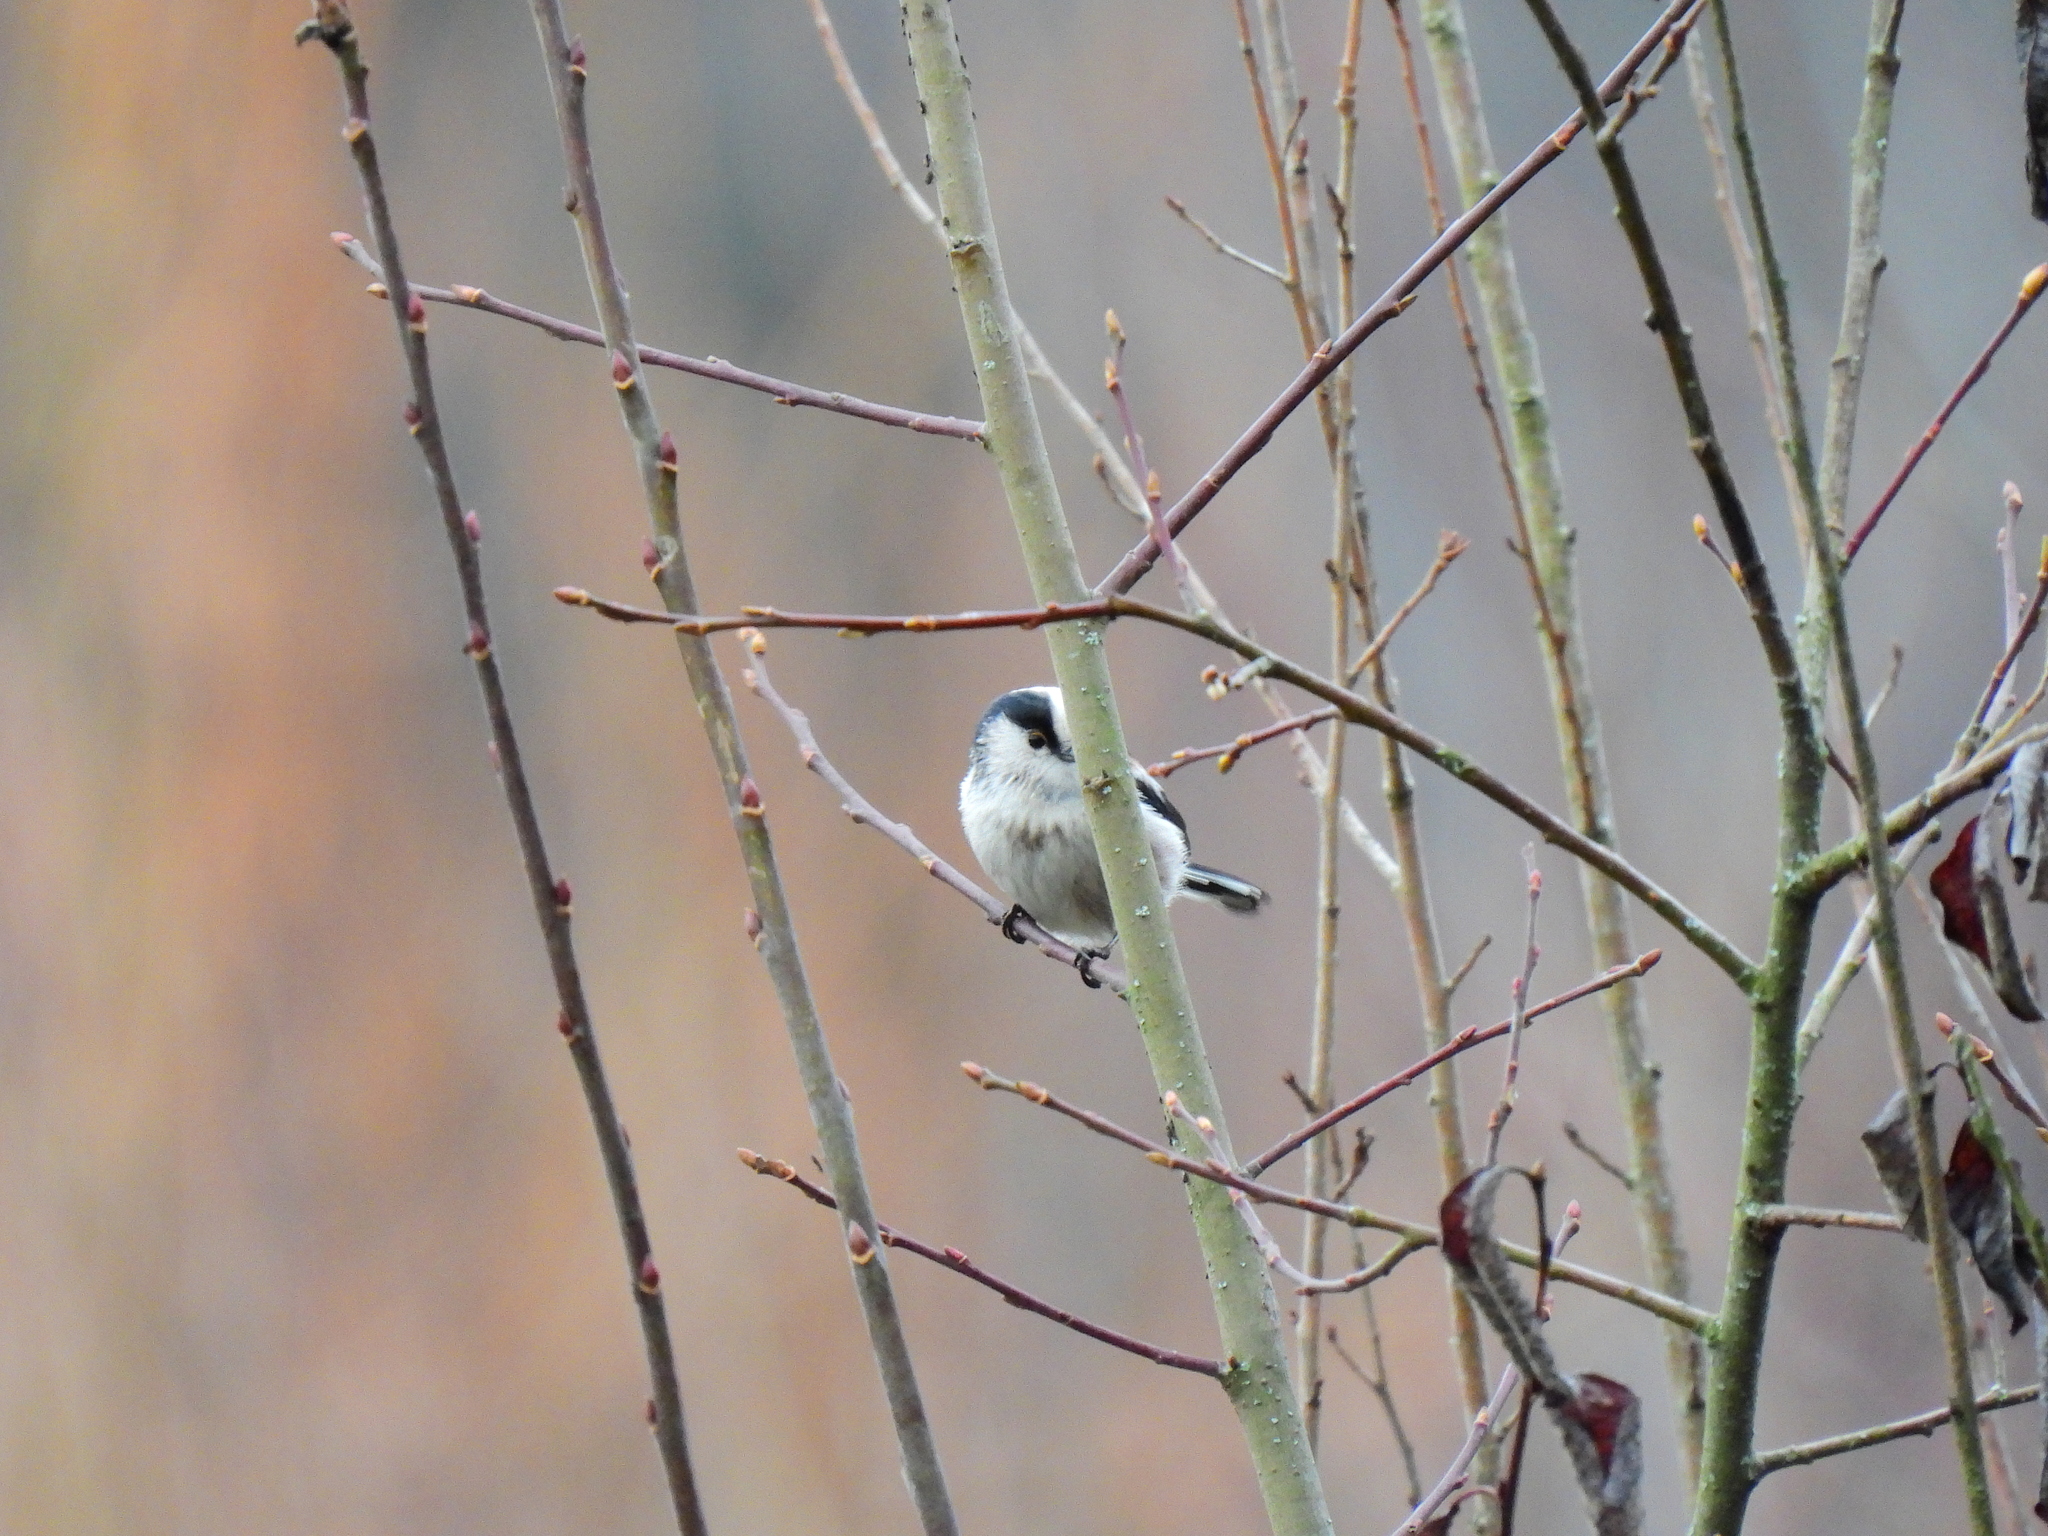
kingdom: Animalia
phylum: Chordata
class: Aves
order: Passeriformes
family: Aegithalidae
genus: Aegithalos
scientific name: Aegithalos caudatus
